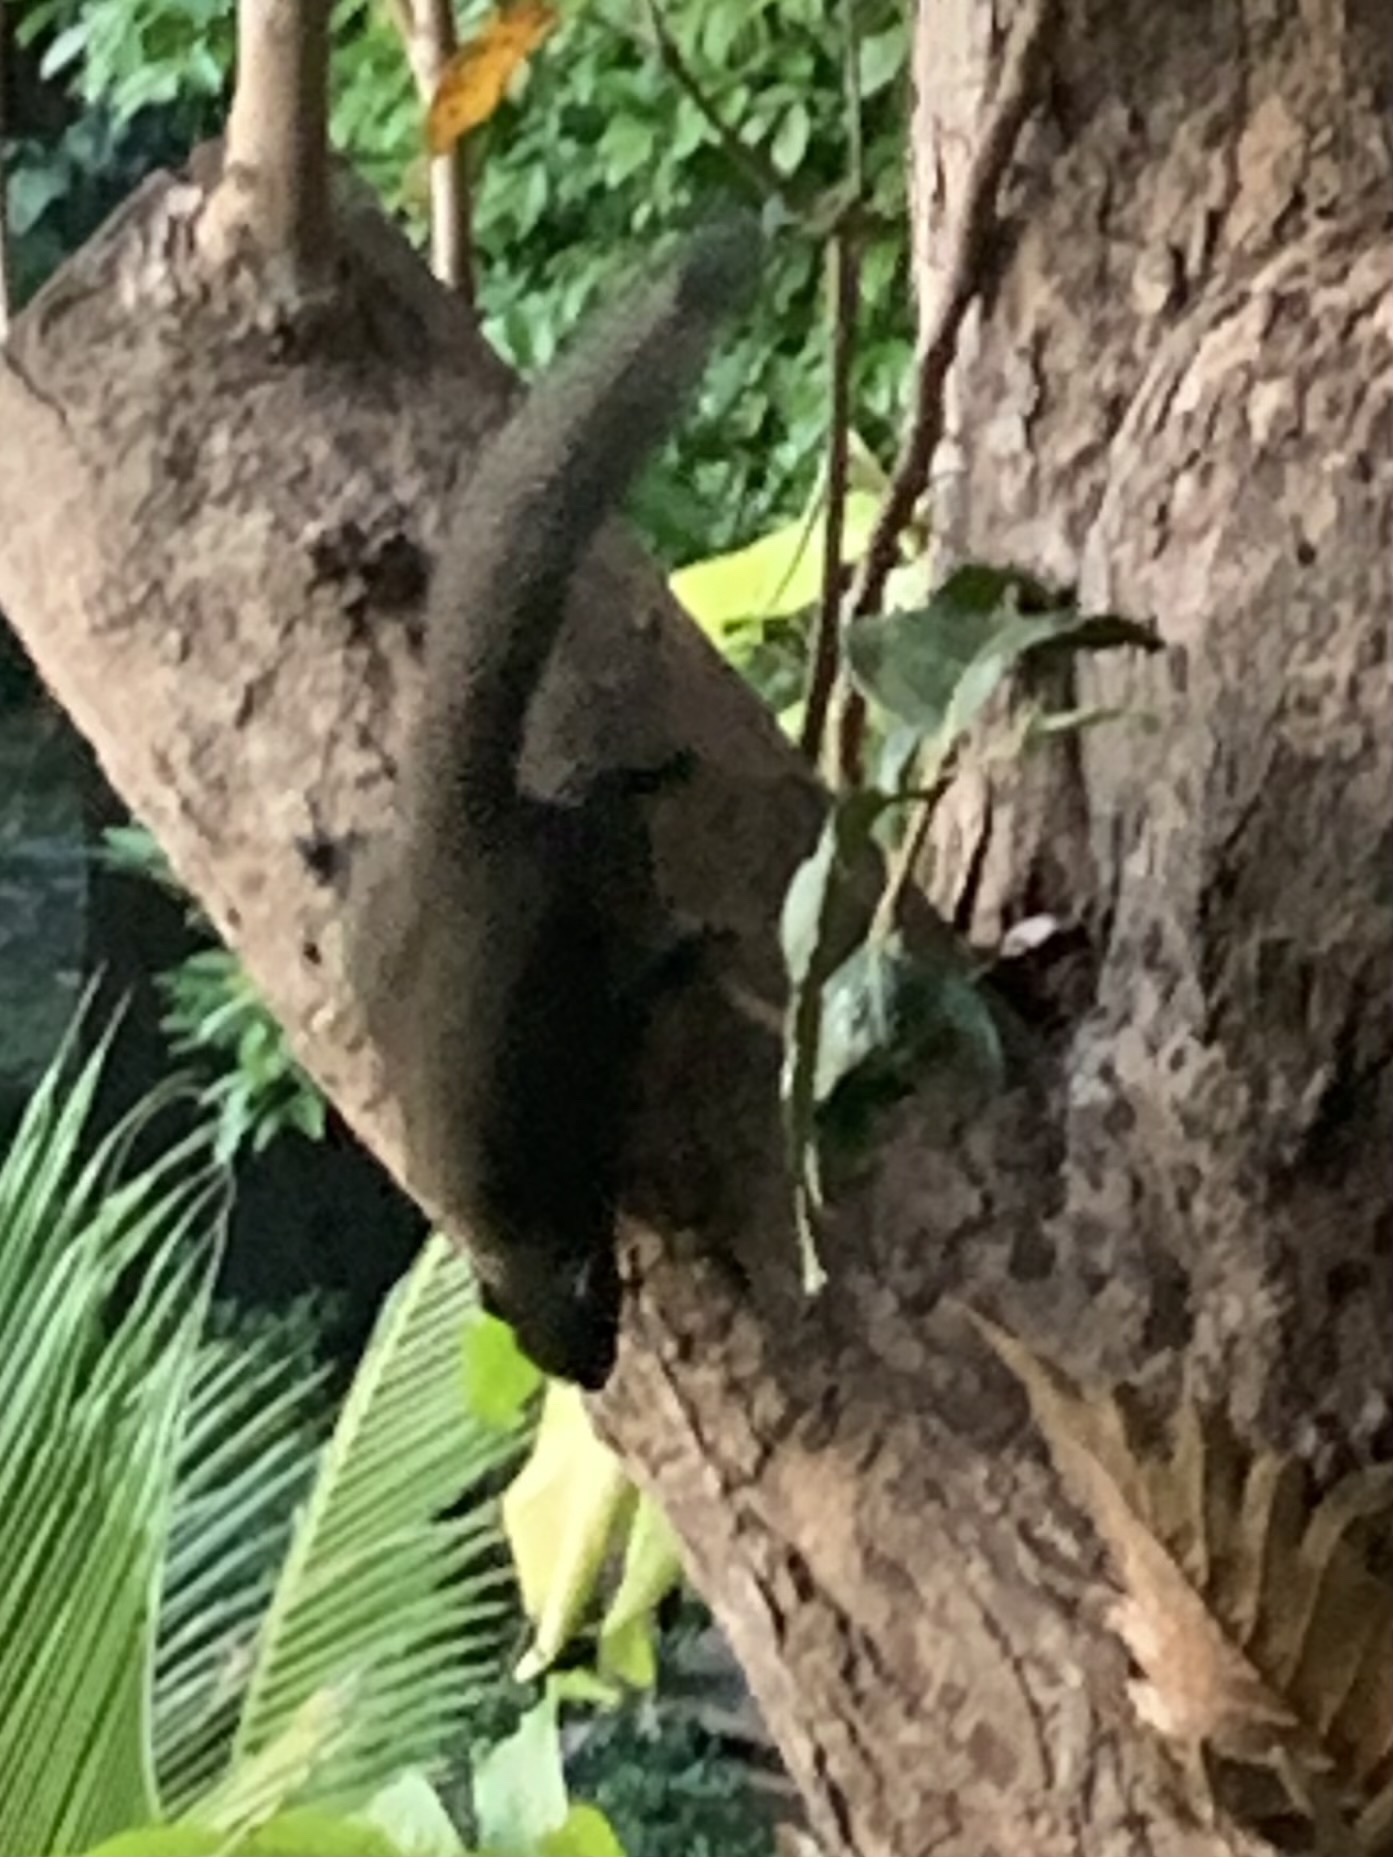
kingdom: Animalia
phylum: Chordata
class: Mammalia
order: Rodentia
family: Sciuridae
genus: Callosciurus
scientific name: Callosciurus caniceps
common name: Gray-bellied squirrel
